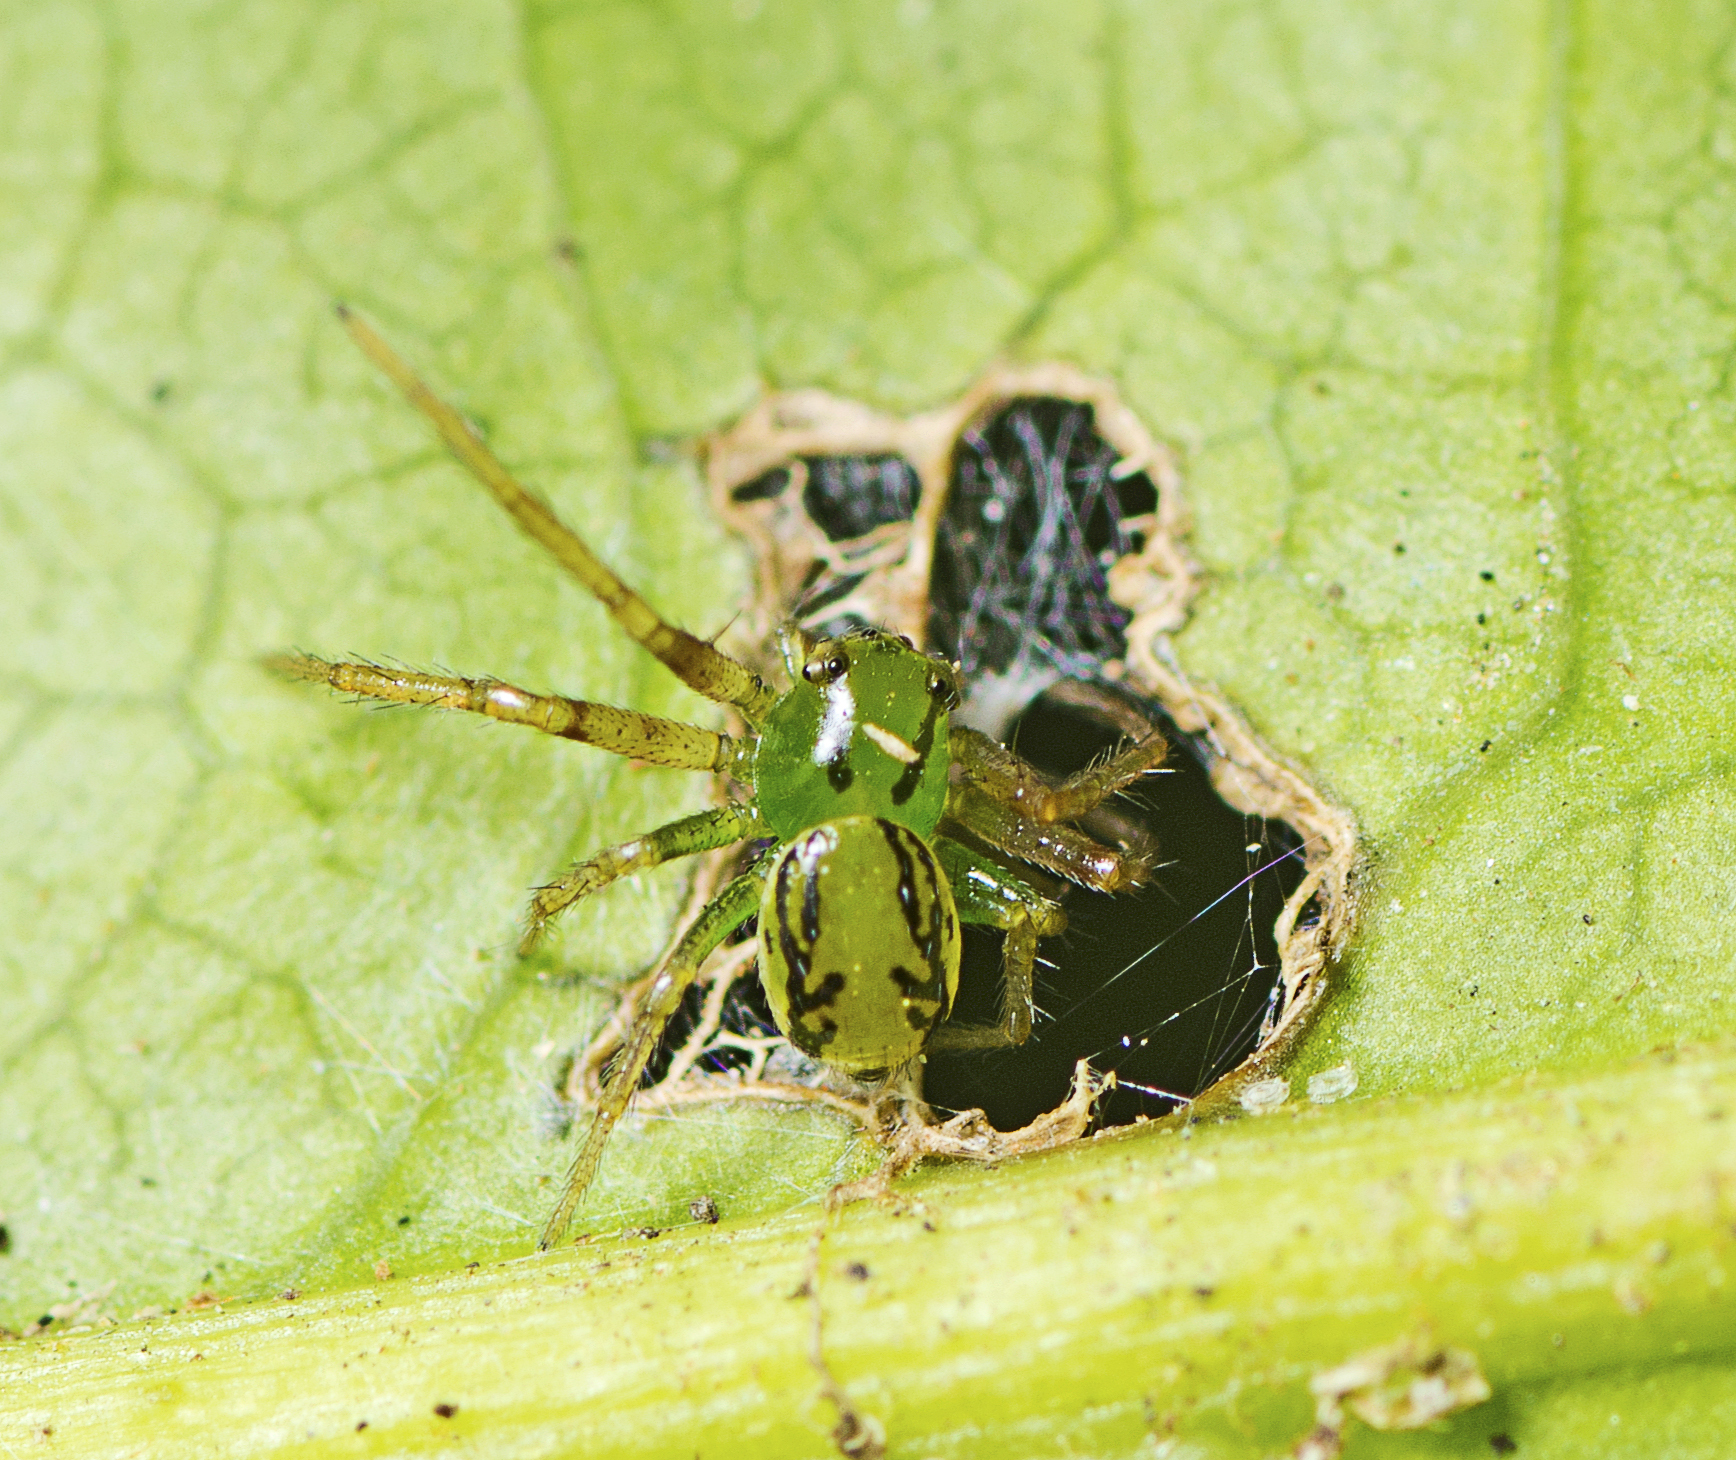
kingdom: Animalia
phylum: Arthropoda
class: Arachnida
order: Araneae
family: Thomisidae
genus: Australomisidia
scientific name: Australomisidia cruentata
